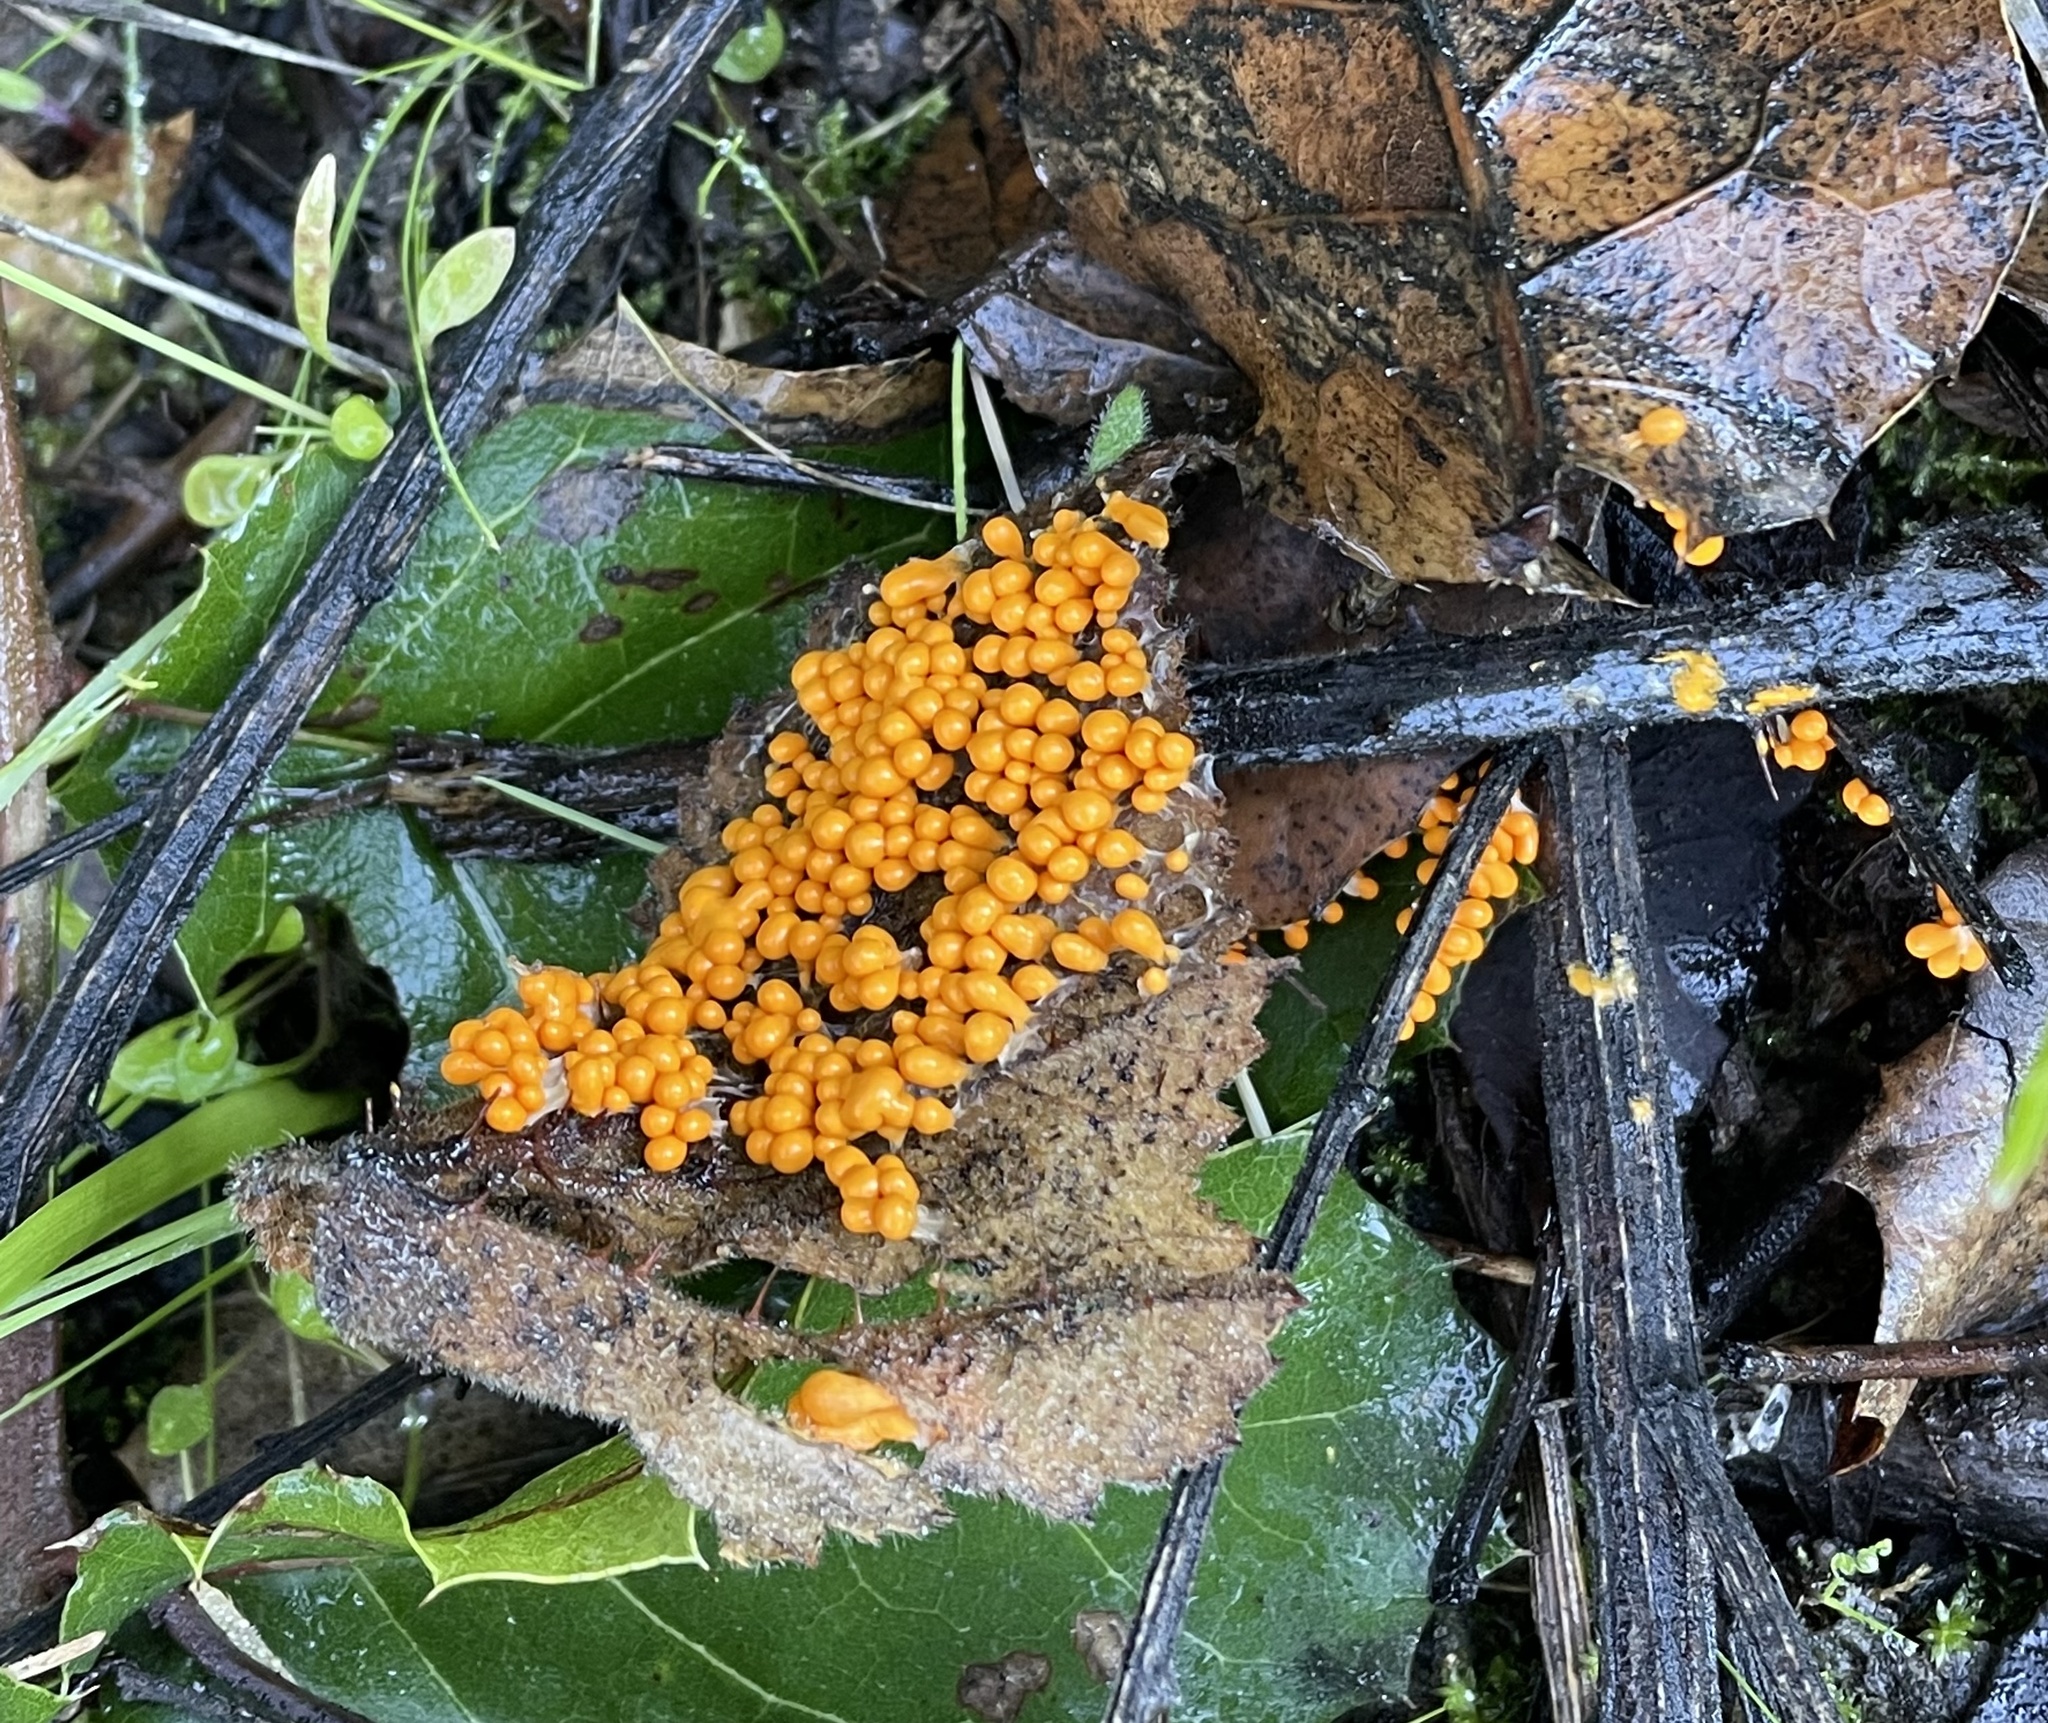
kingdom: Protozoa
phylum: Mycetozoa
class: Myxomycetes
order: Physarales
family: Physaraceae
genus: Leocarpus
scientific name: Leocarpus fragilis
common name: Insect-egg slime
